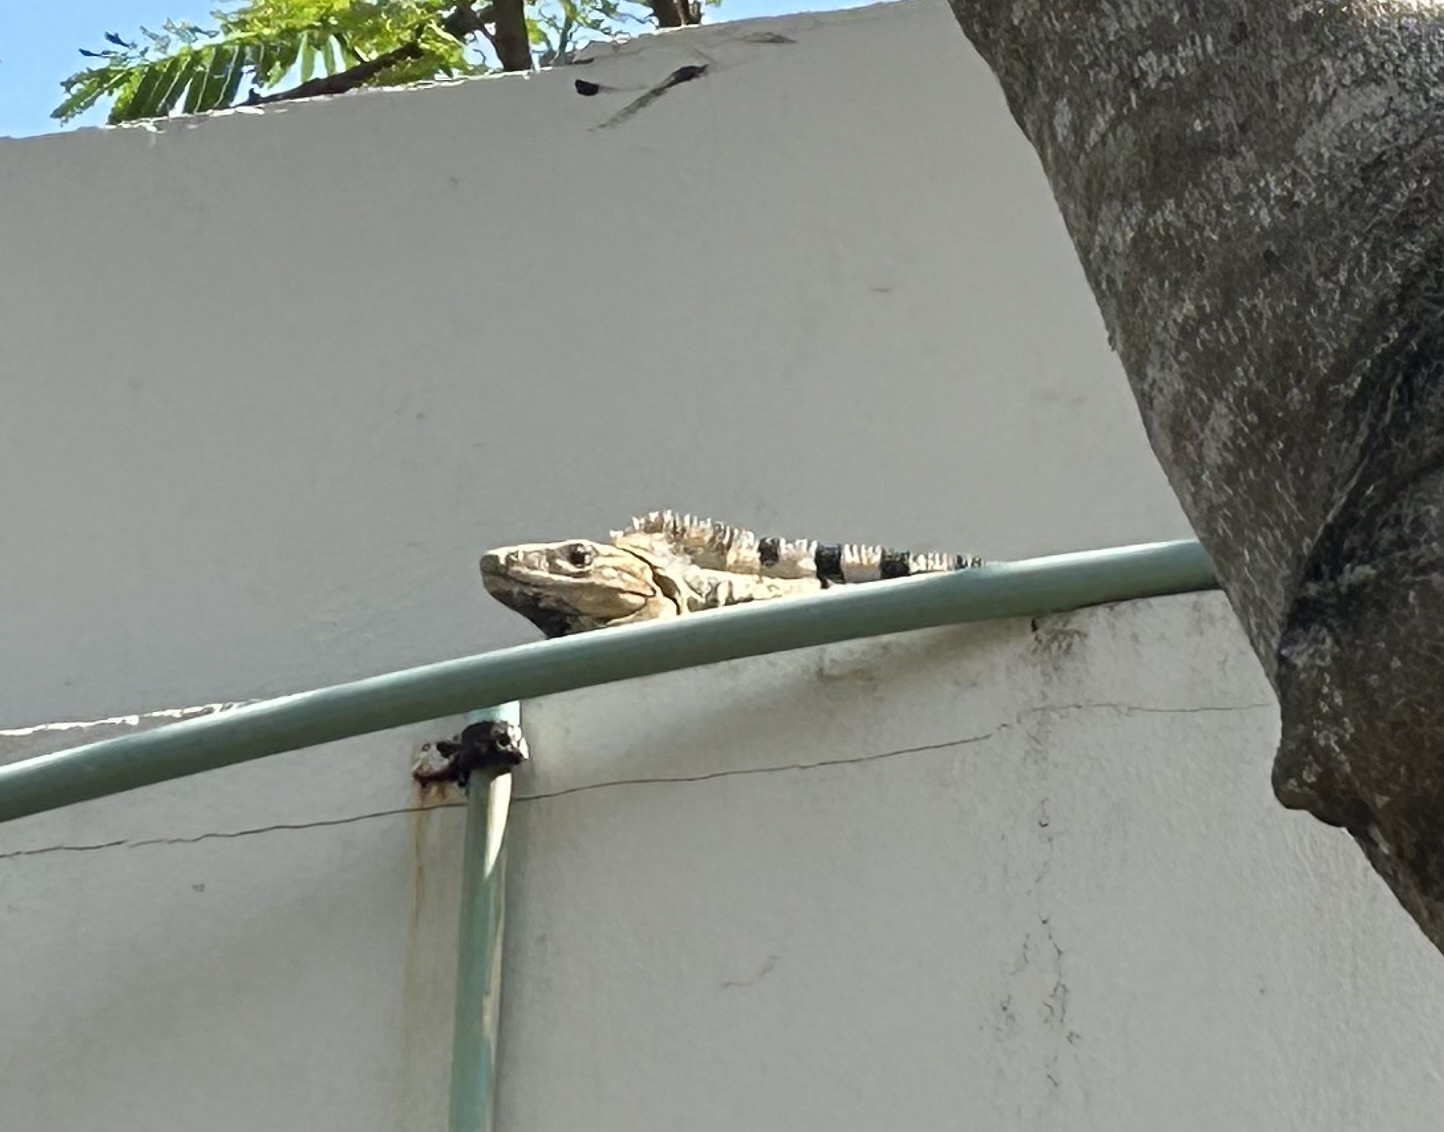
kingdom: Animalia
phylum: Chordata
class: Squamata
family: Iguanidae
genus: Ctenosaura
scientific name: Ctenosaura similis
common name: Black spiny-tailed iguana
